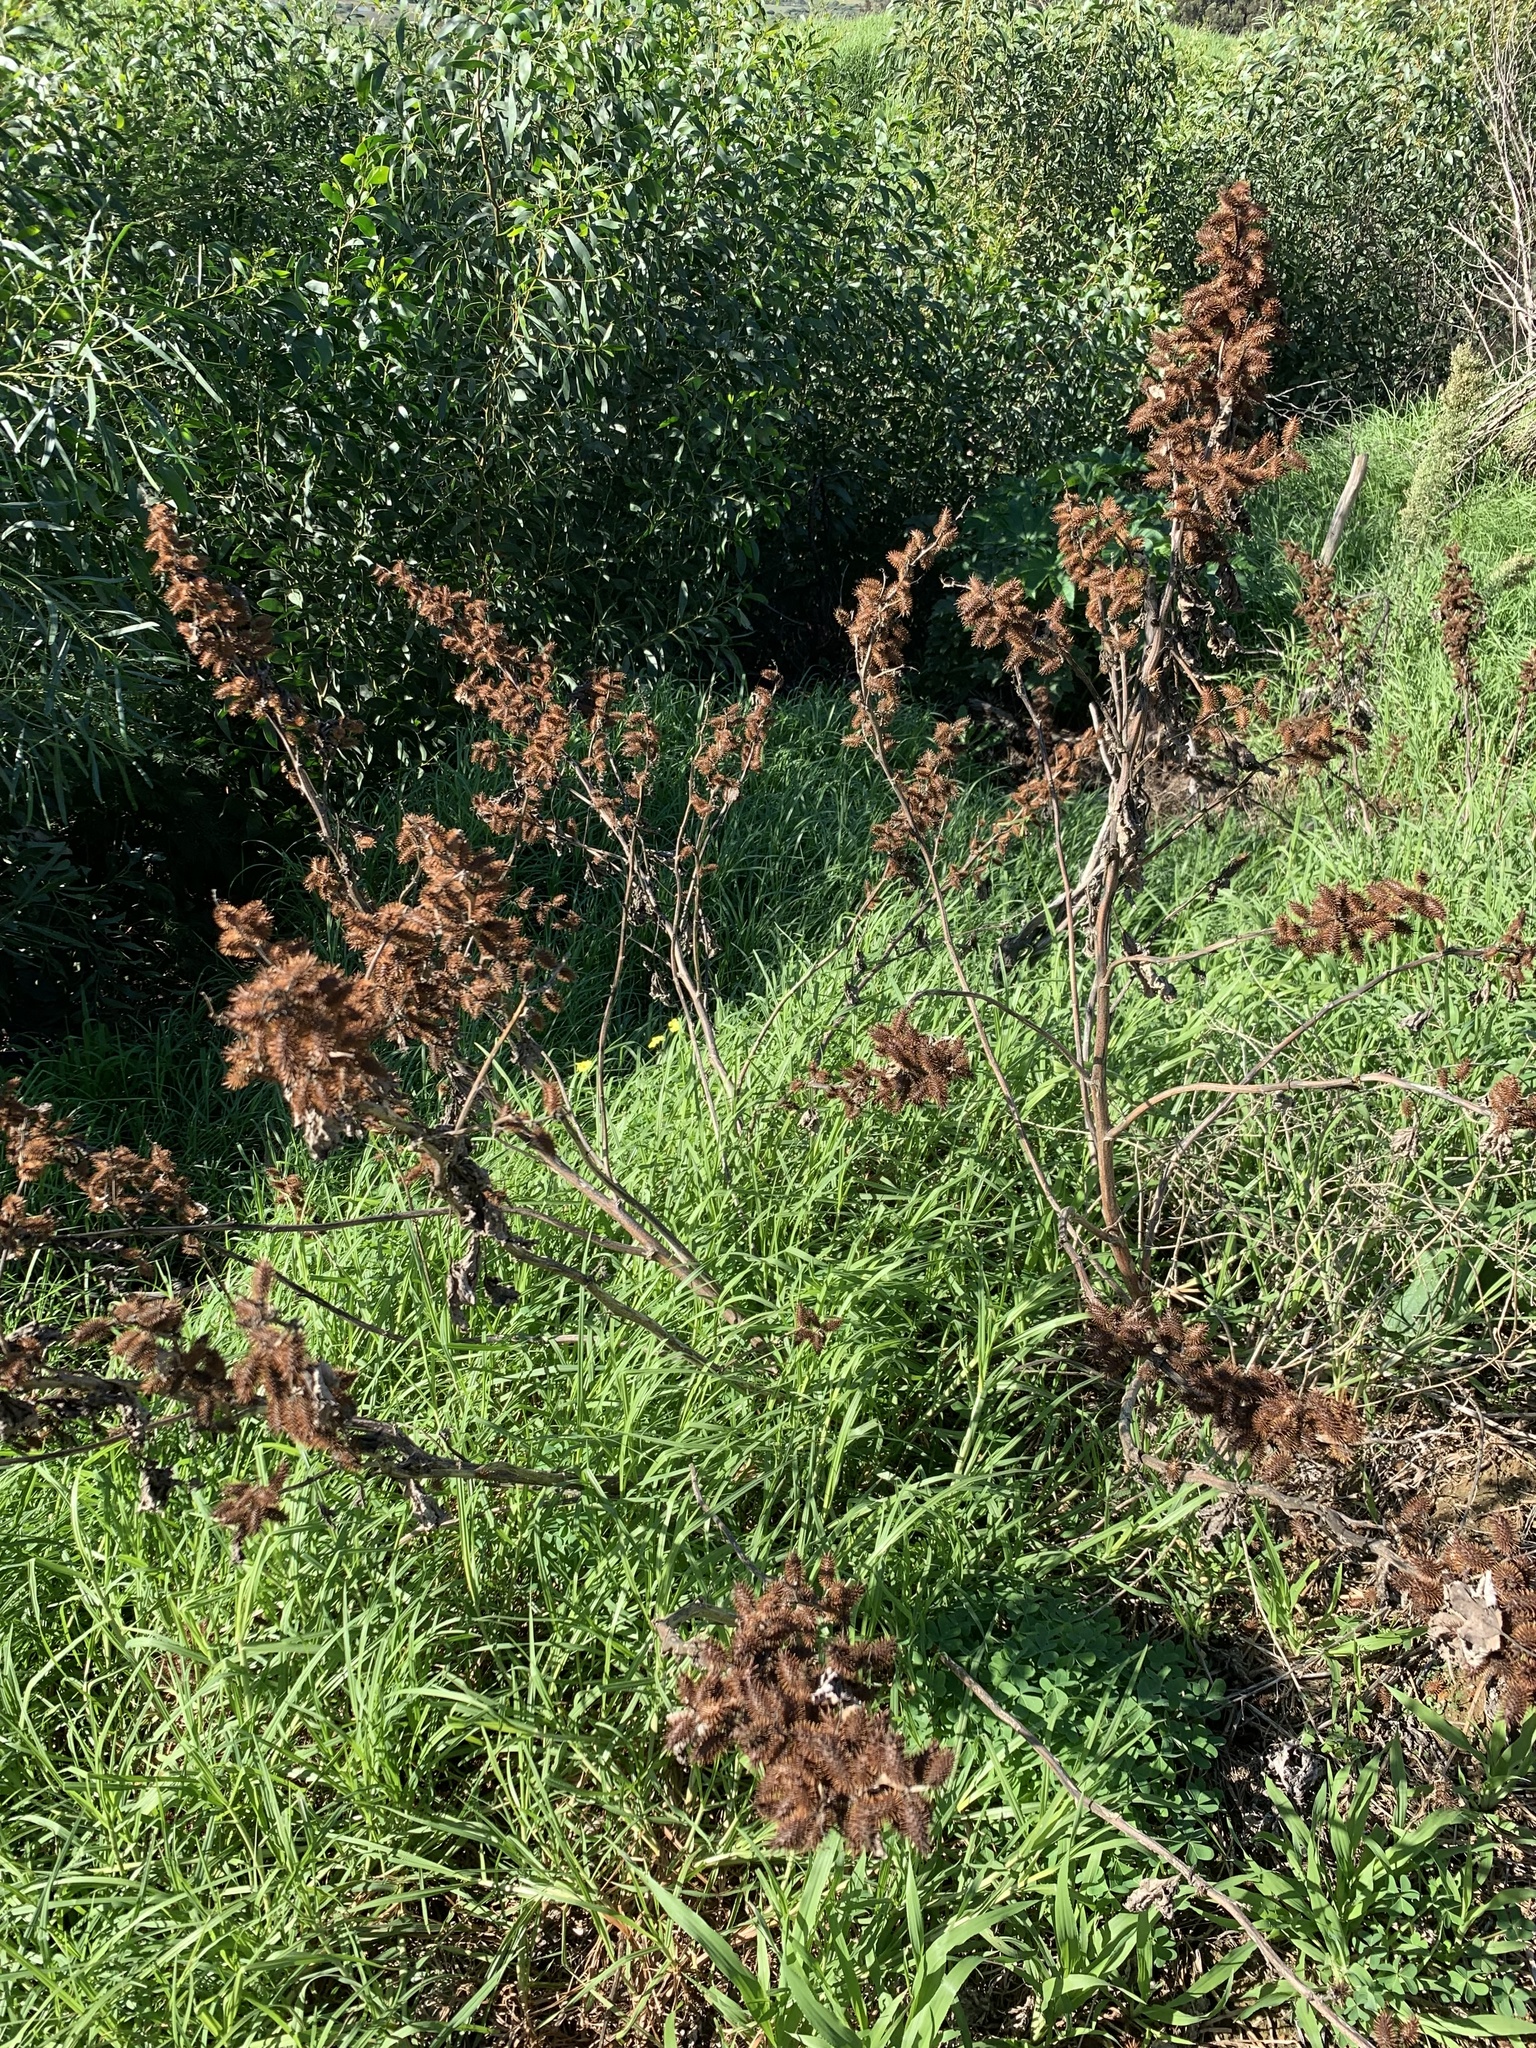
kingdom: Plantae
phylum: Tracheophyta
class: Magnoliopsida
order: Asterales
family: Asteraceae
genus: Xanthium
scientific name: Xanthium strumarium
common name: Rough cocklebur
